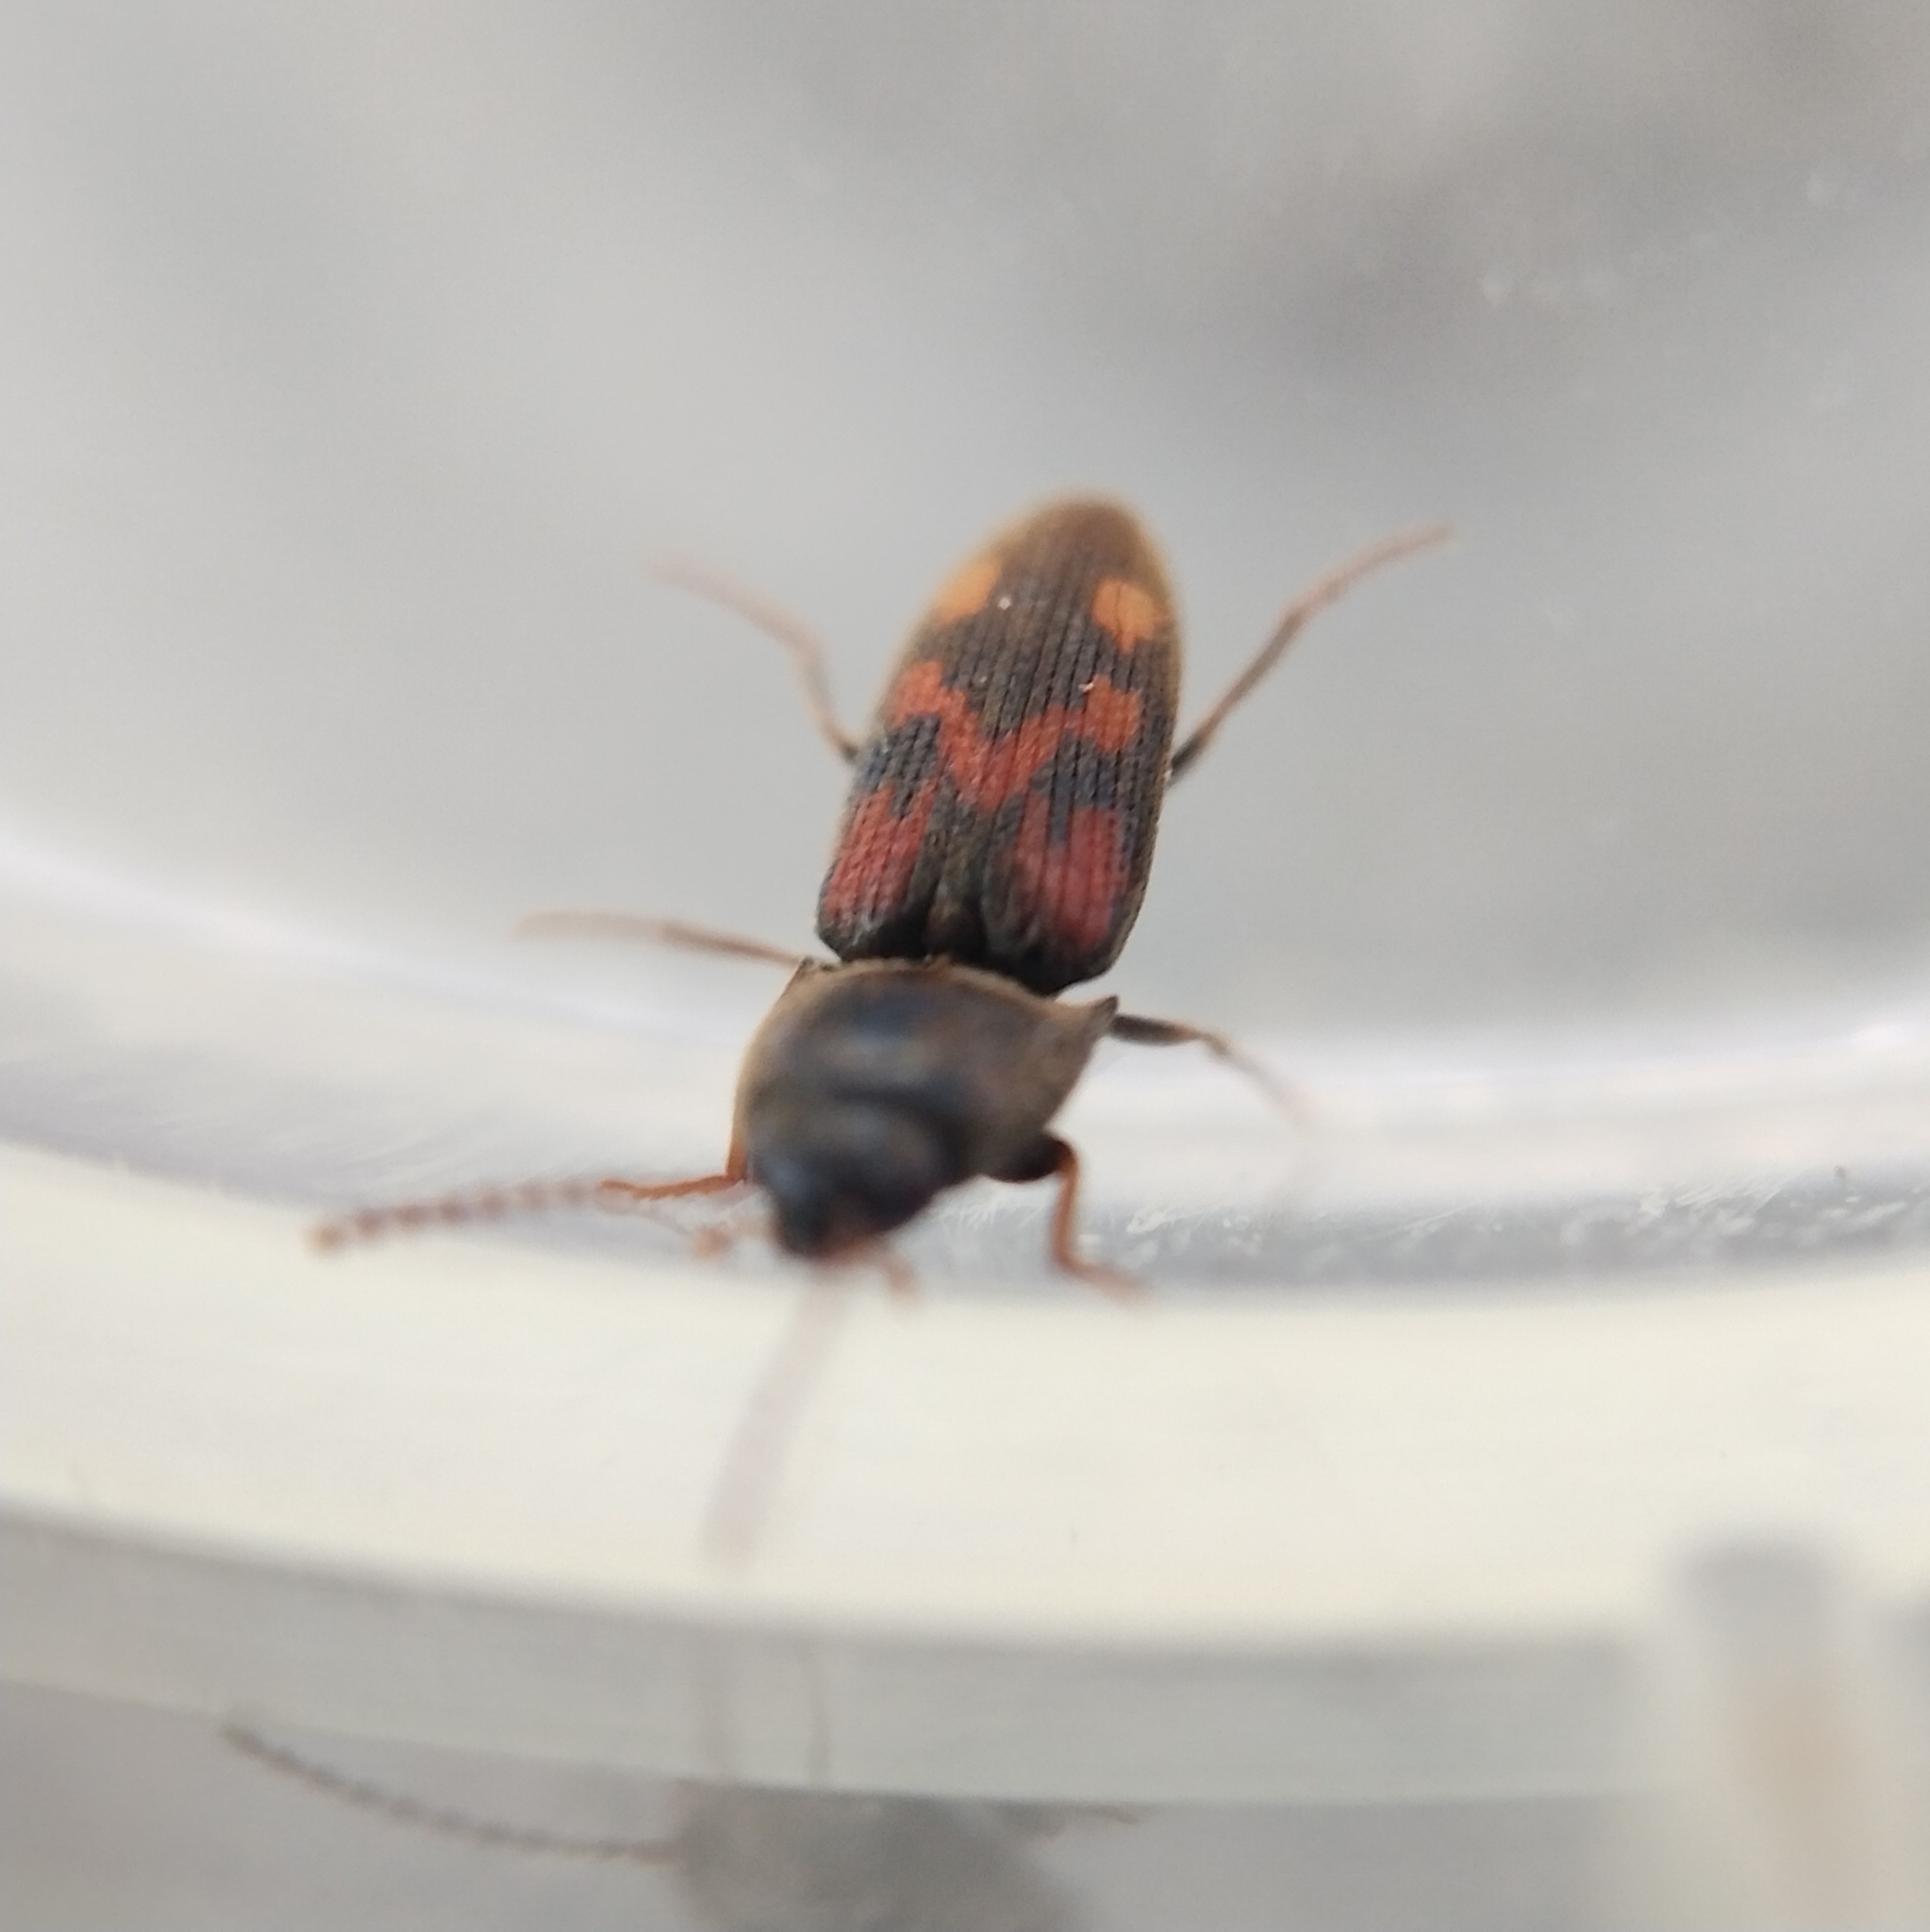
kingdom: Animalia
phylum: Arthropoda
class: Insecta
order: Coleoptera
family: Elateridae
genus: Drasterius
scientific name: Drasterius bimaculatus
